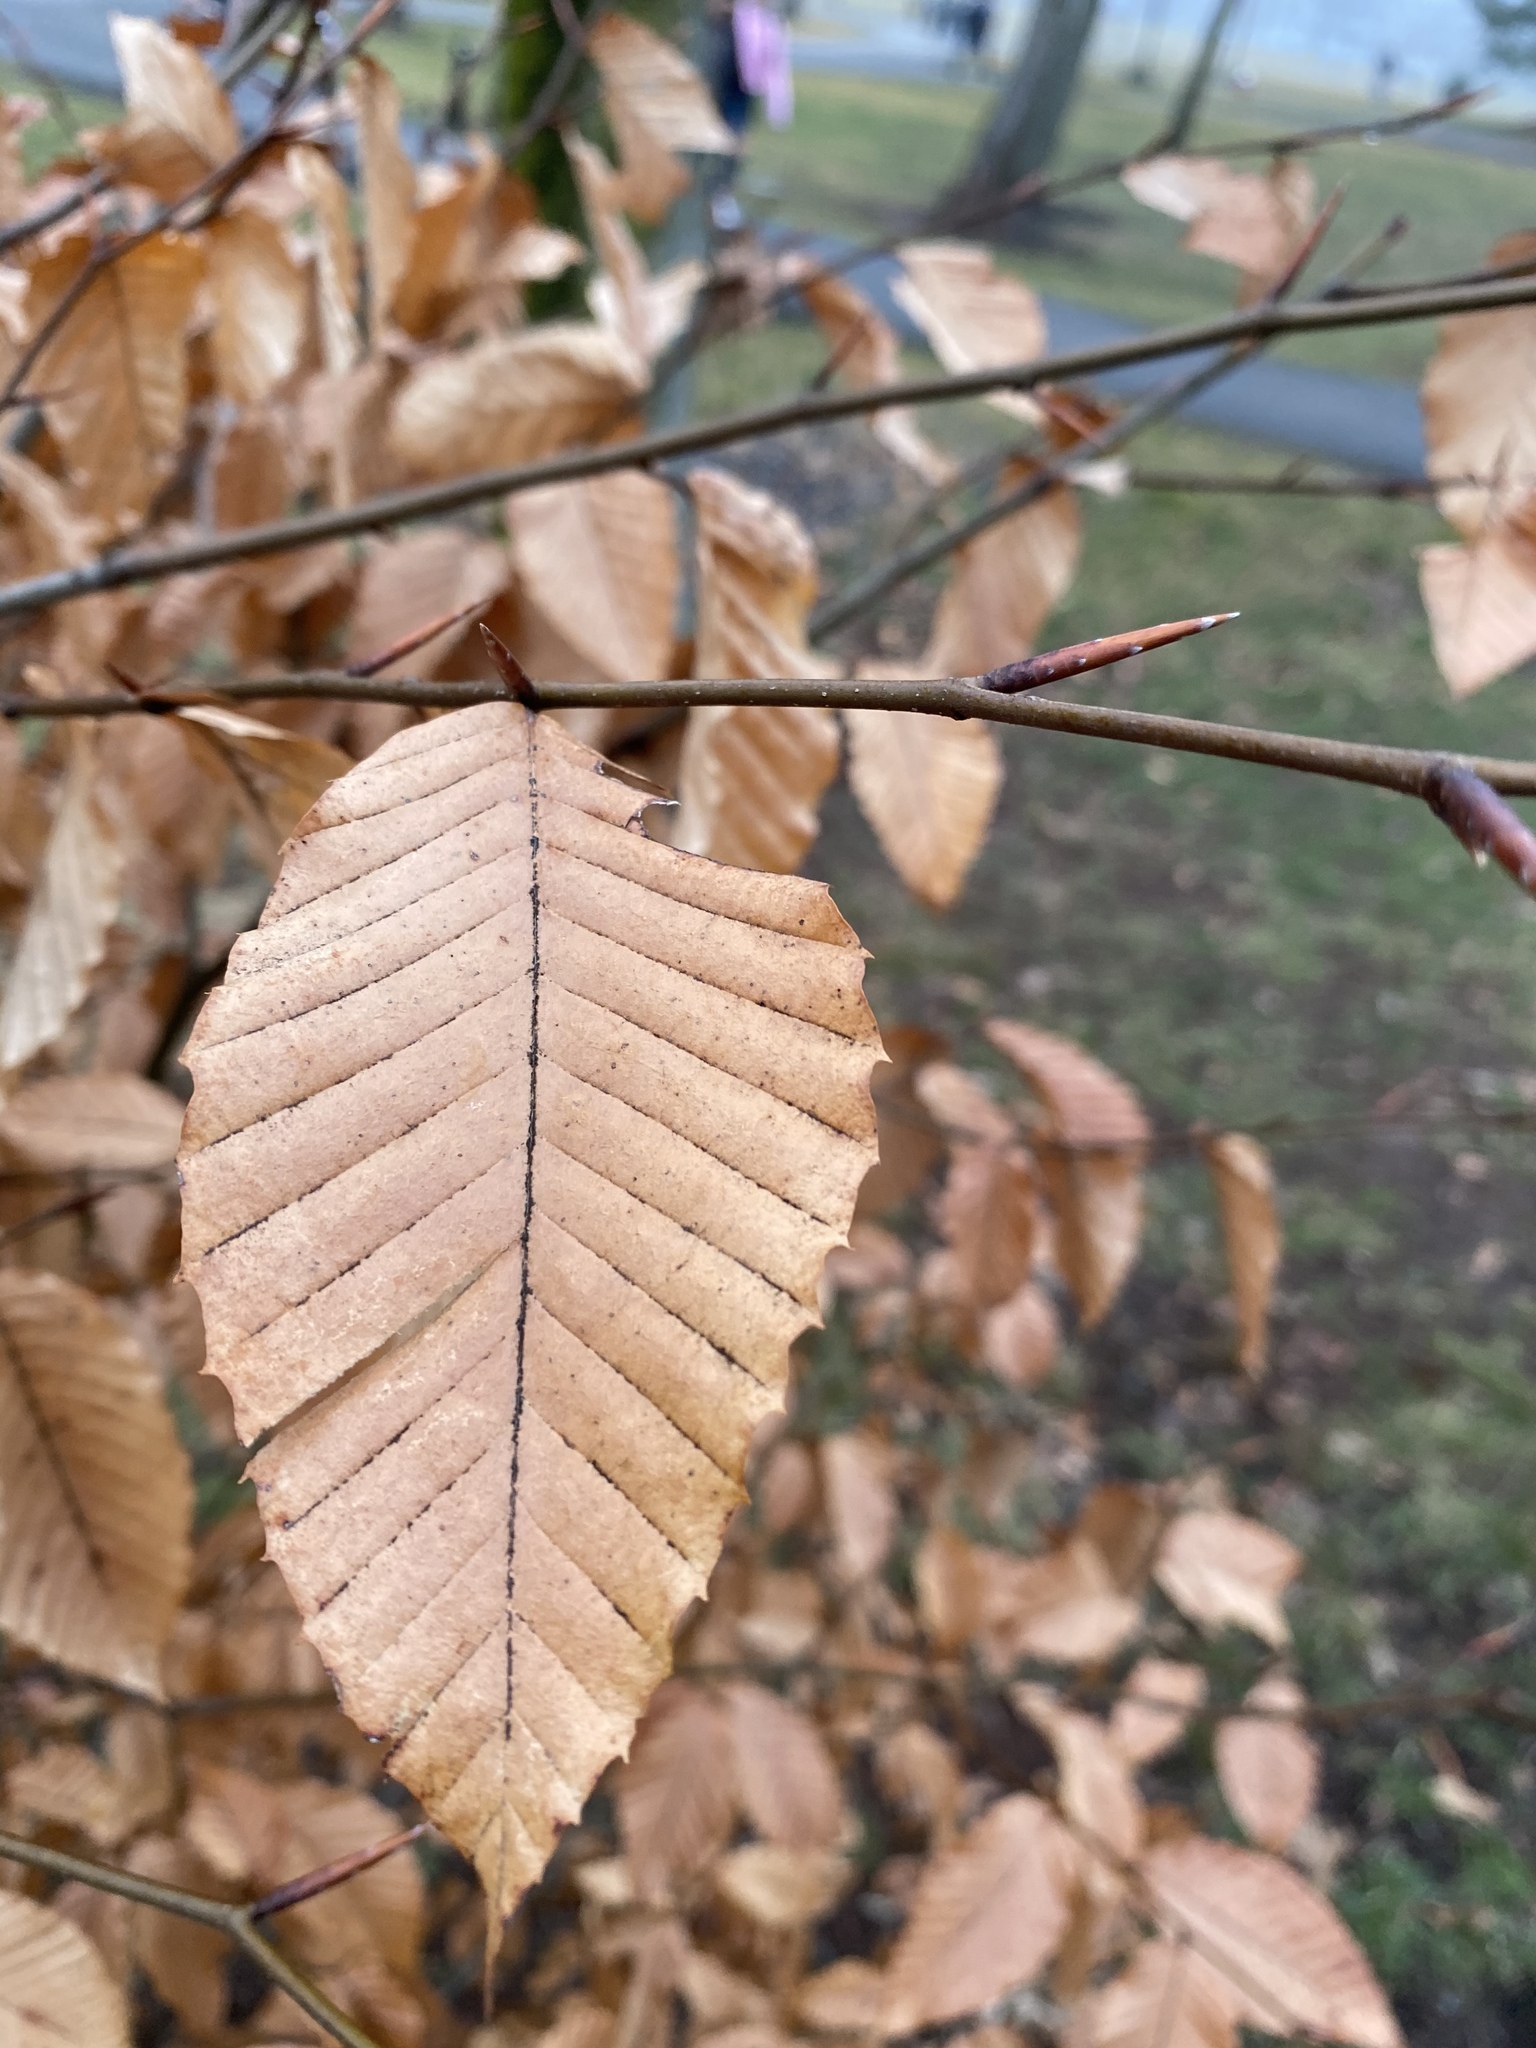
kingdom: Plantae
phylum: Tracheophyta
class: Magnoliopsida
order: Fagales
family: Fagaceae
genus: Fagus
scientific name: Fagus grandifolia
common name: American beech
